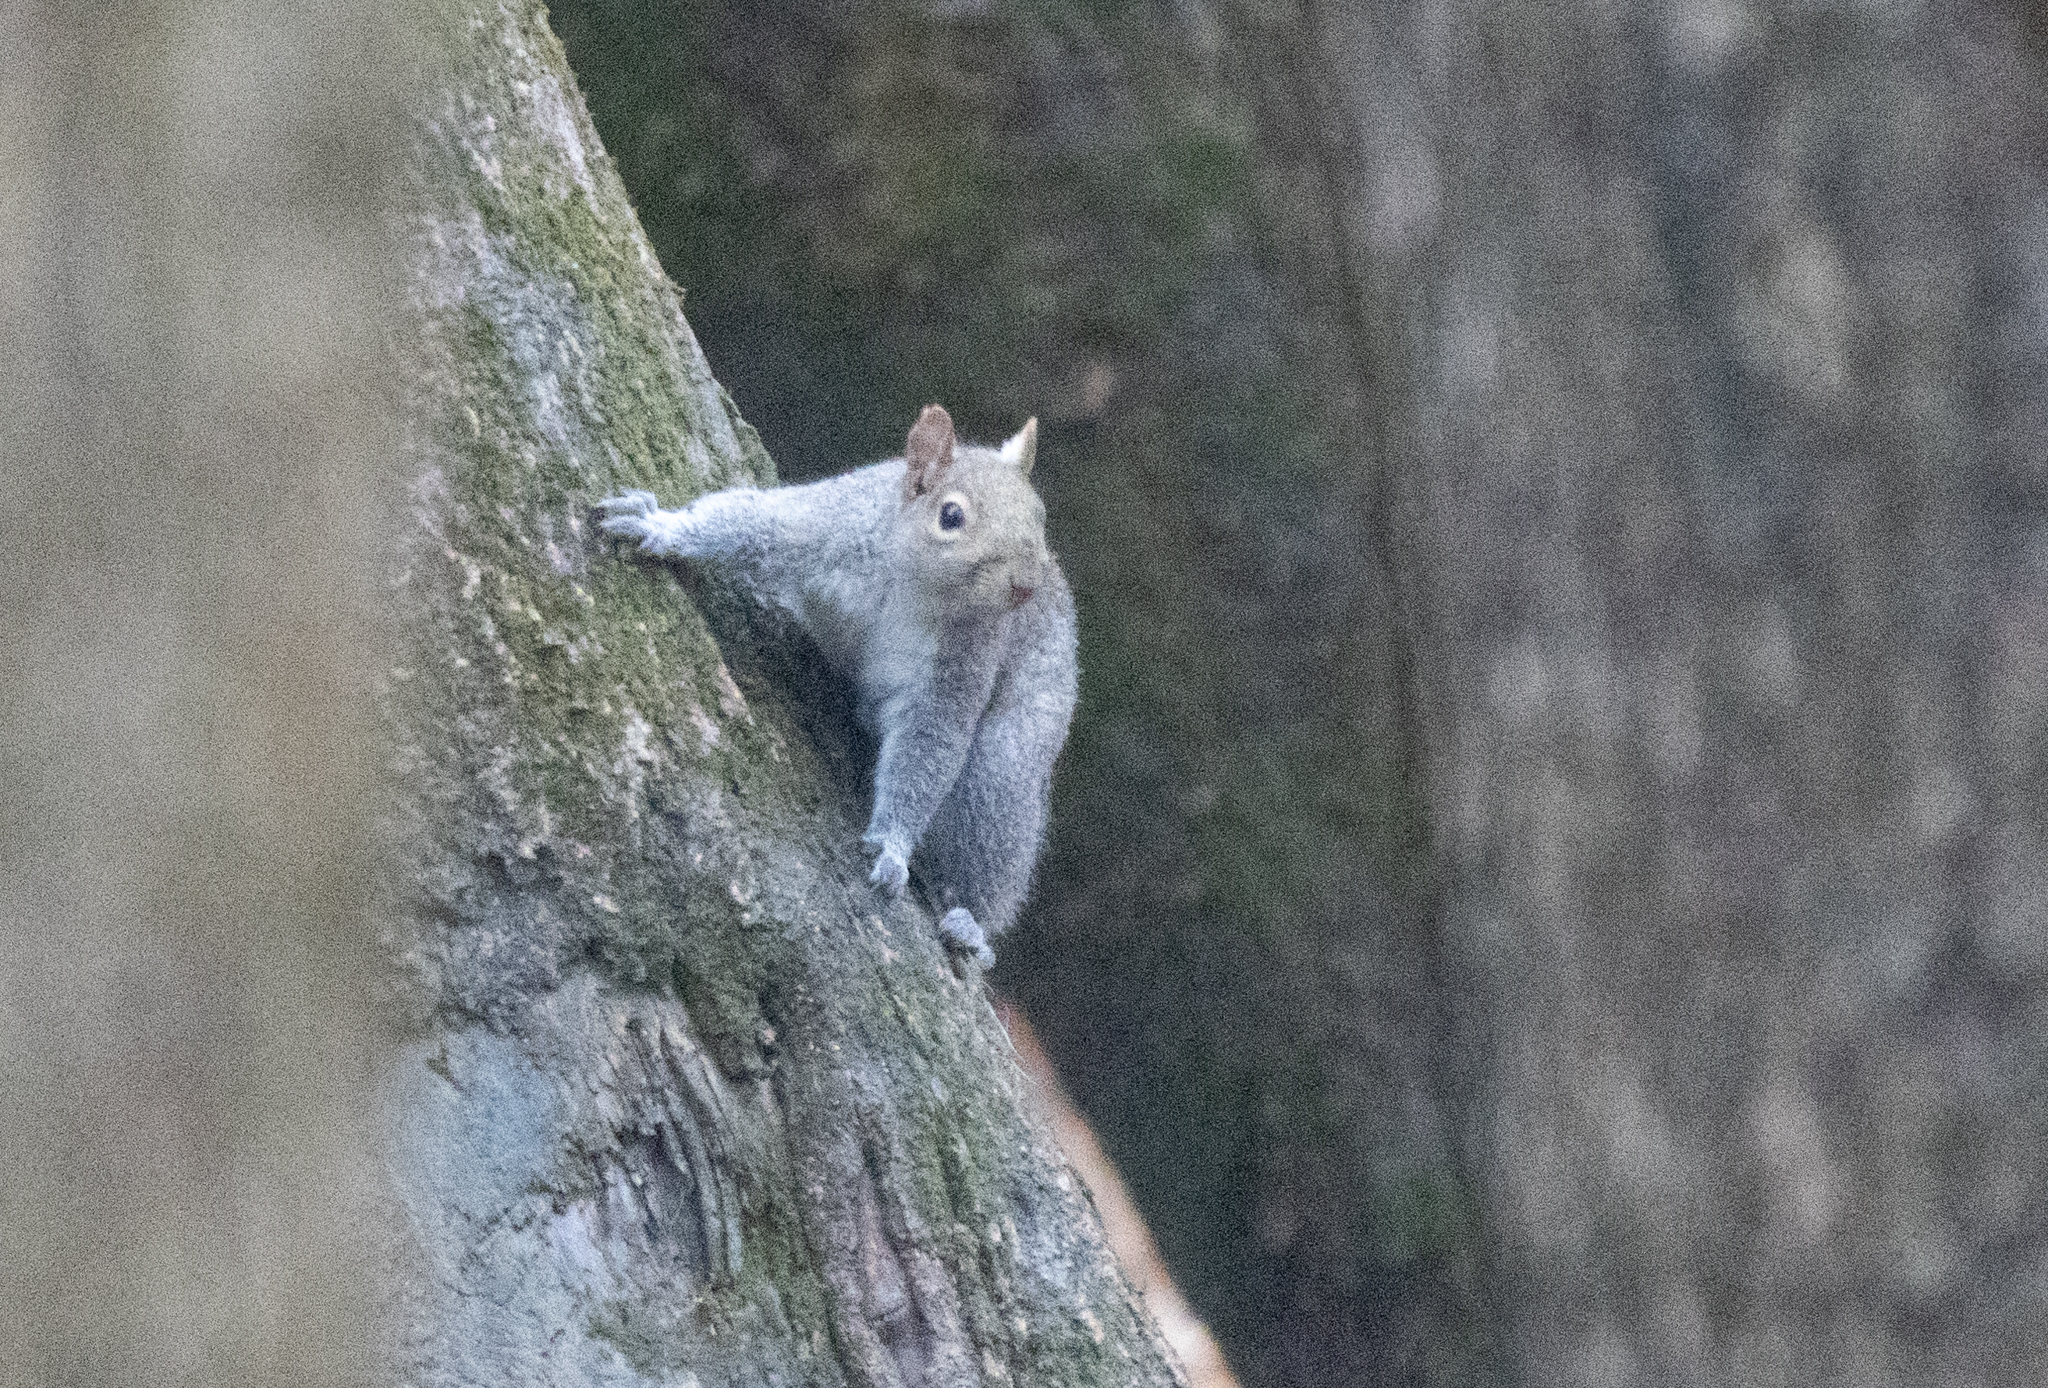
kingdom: Animalia
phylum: Chordata
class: Mammalia
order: Rodentia
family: Sciuridae
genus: Sciurus
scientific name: Sciurus carolinensis
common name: Eastern gray squirrel
